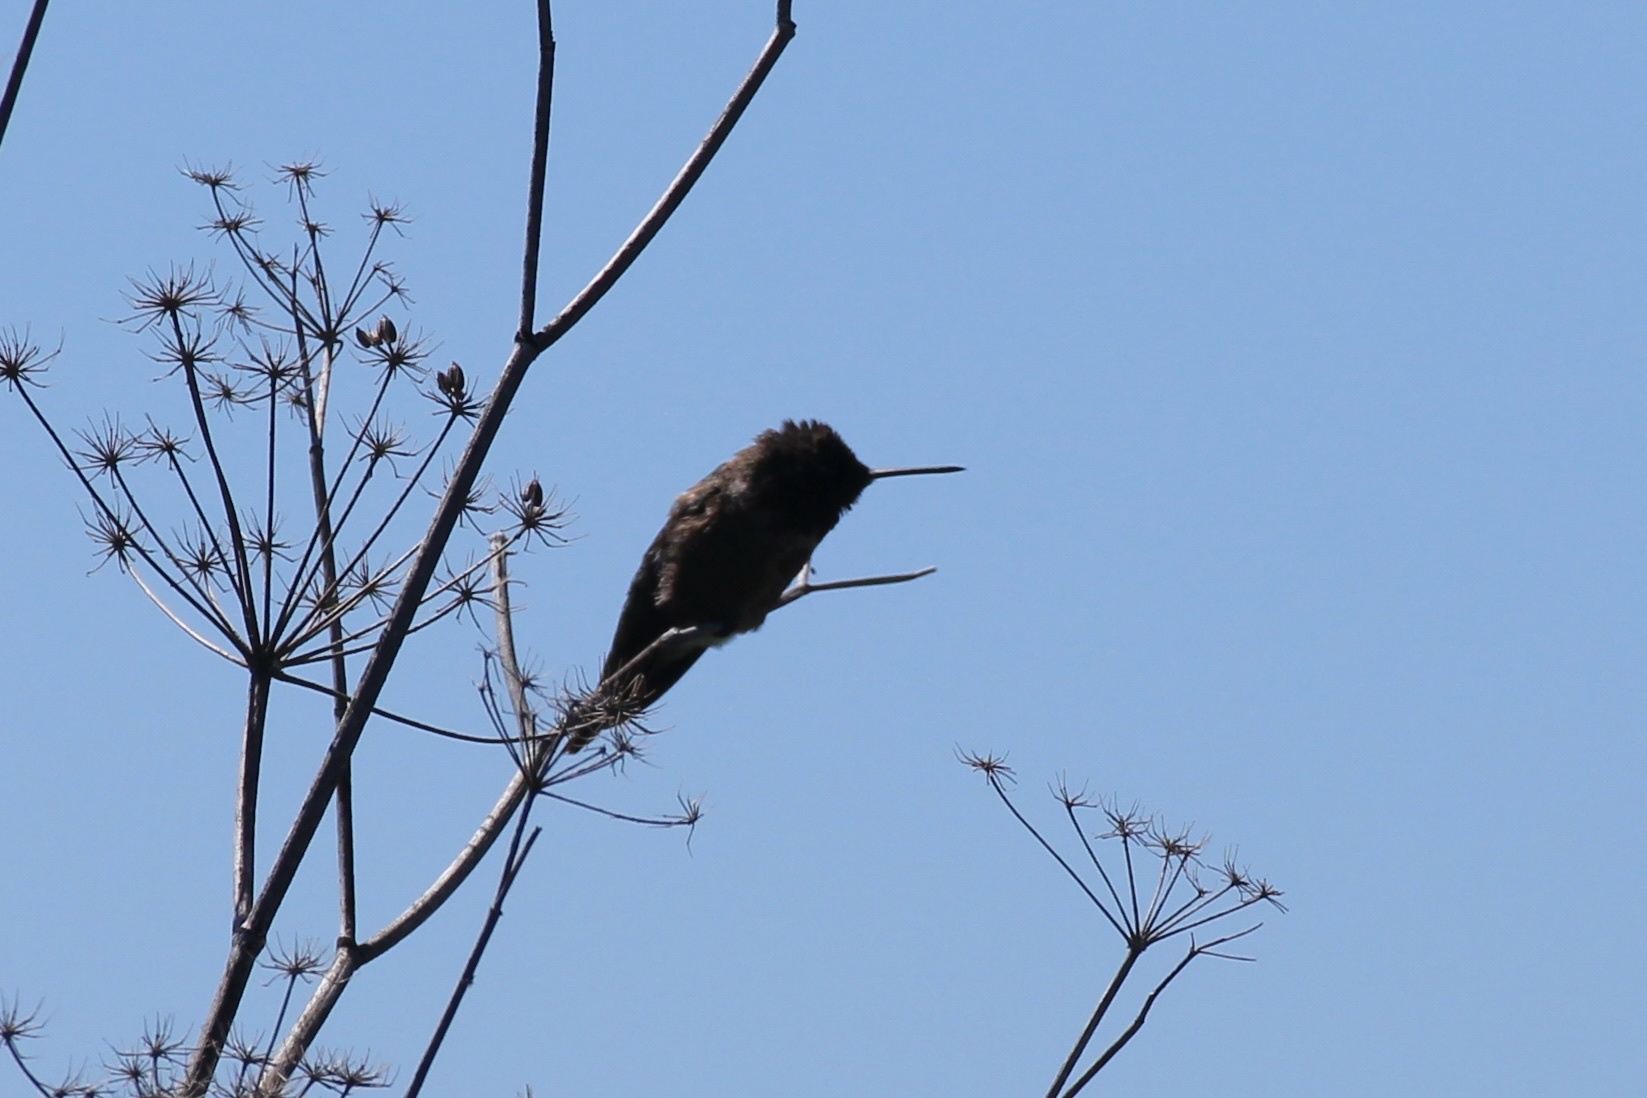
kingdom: Animalia
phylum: Chordata
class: Aves
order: Apodiformes
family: Trochilidae
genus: Calypte
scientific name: Calypte anna
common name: Anna's hummingbird
